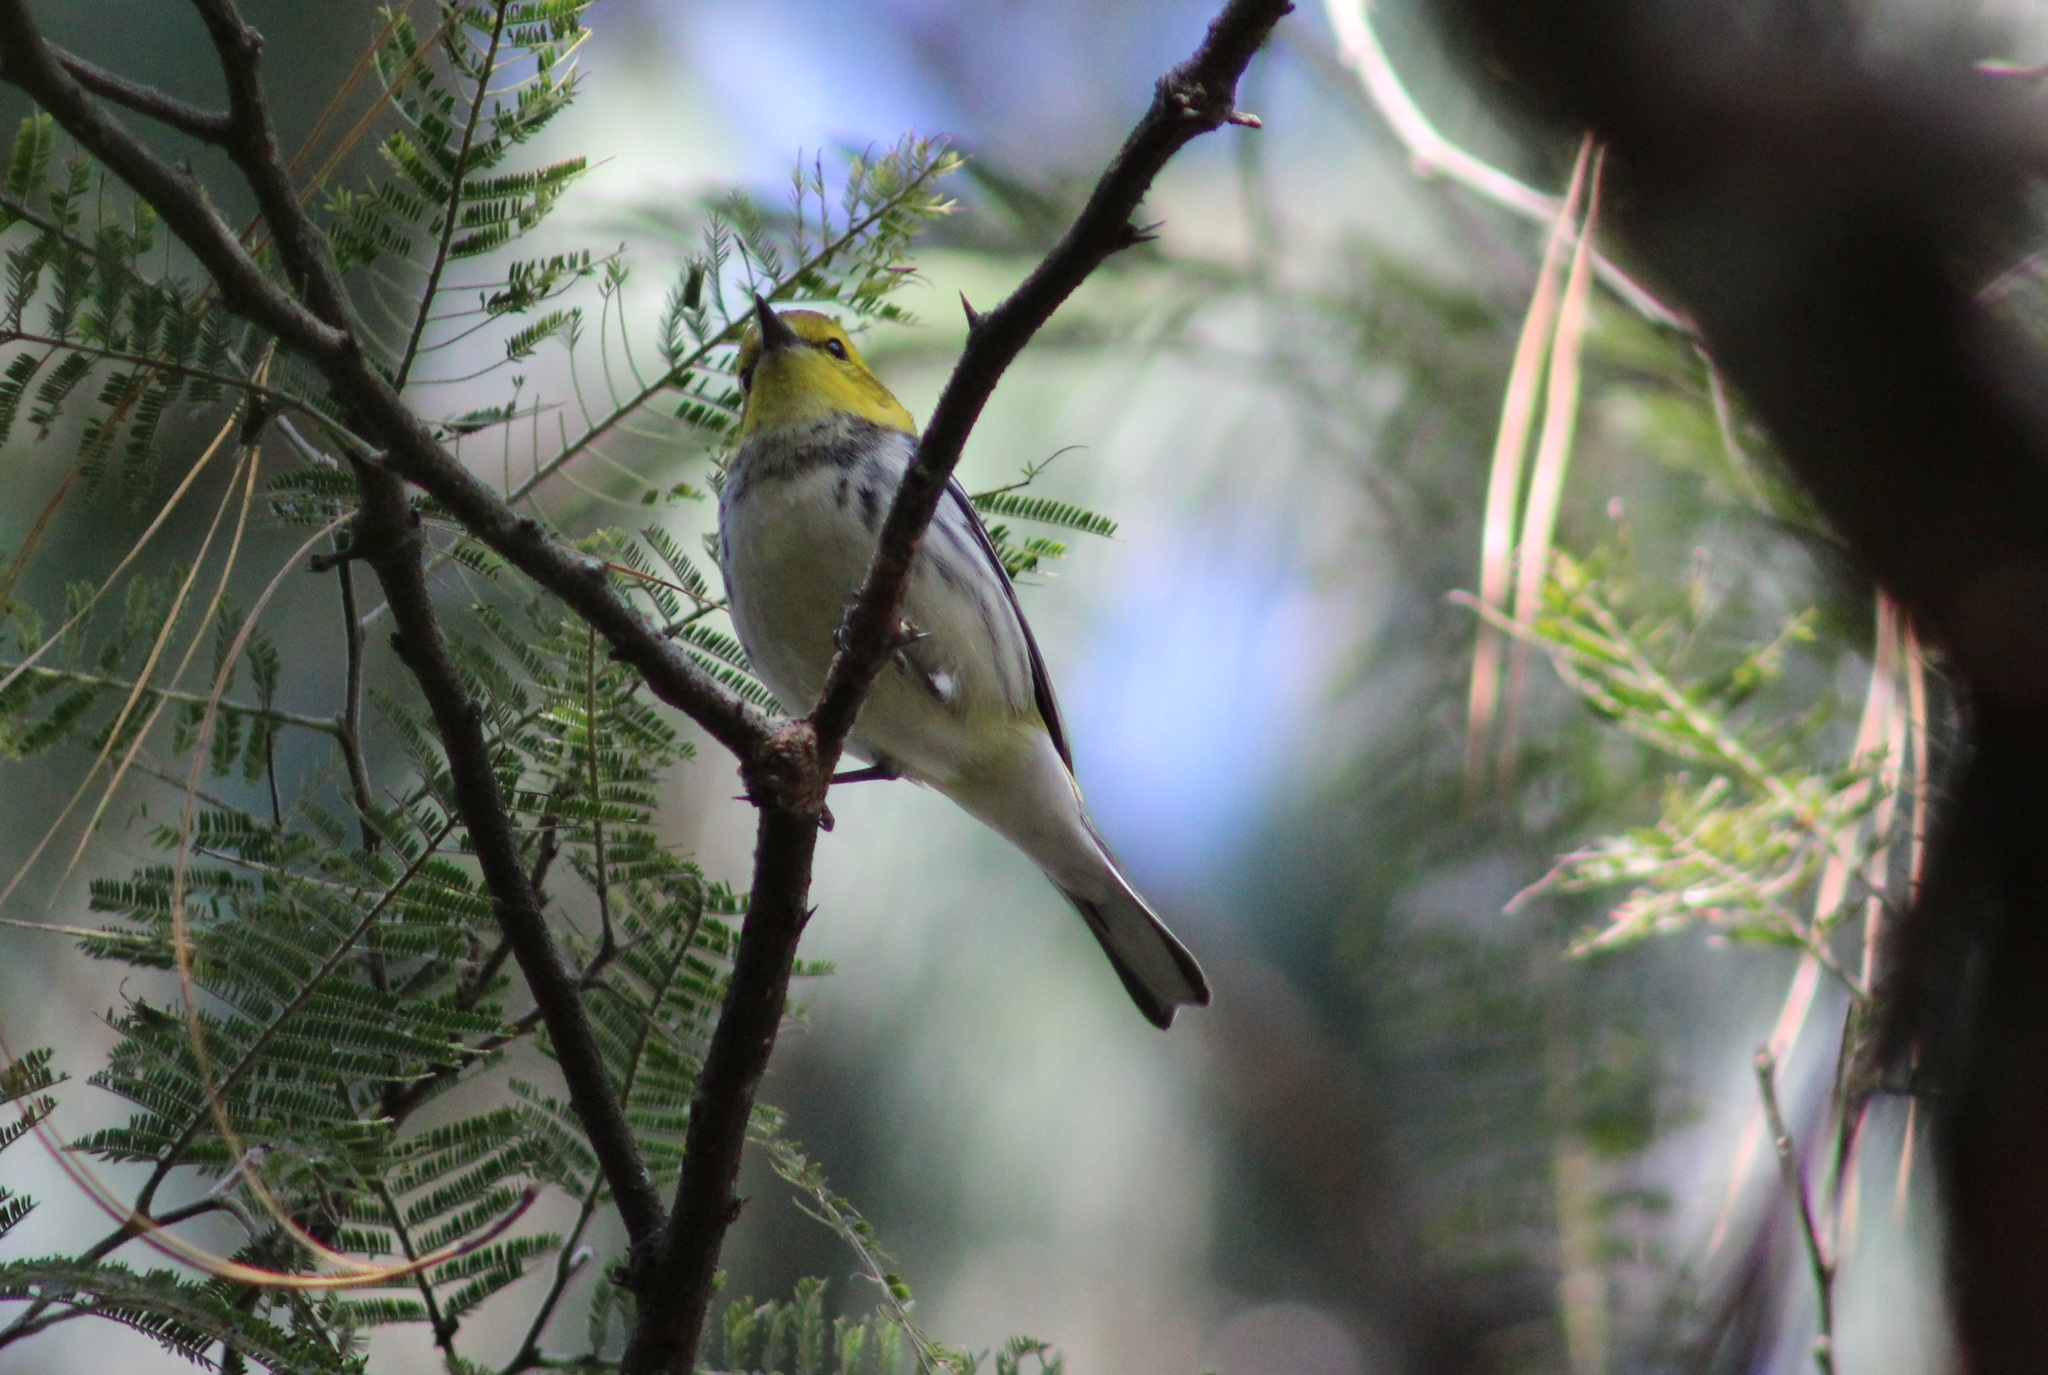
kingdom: Animalia
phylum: Chordata
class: Aves
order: Passeriformes
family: Parulidae
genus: Setophaga
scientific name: Setophaga virens
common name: Black-throated green warbler
